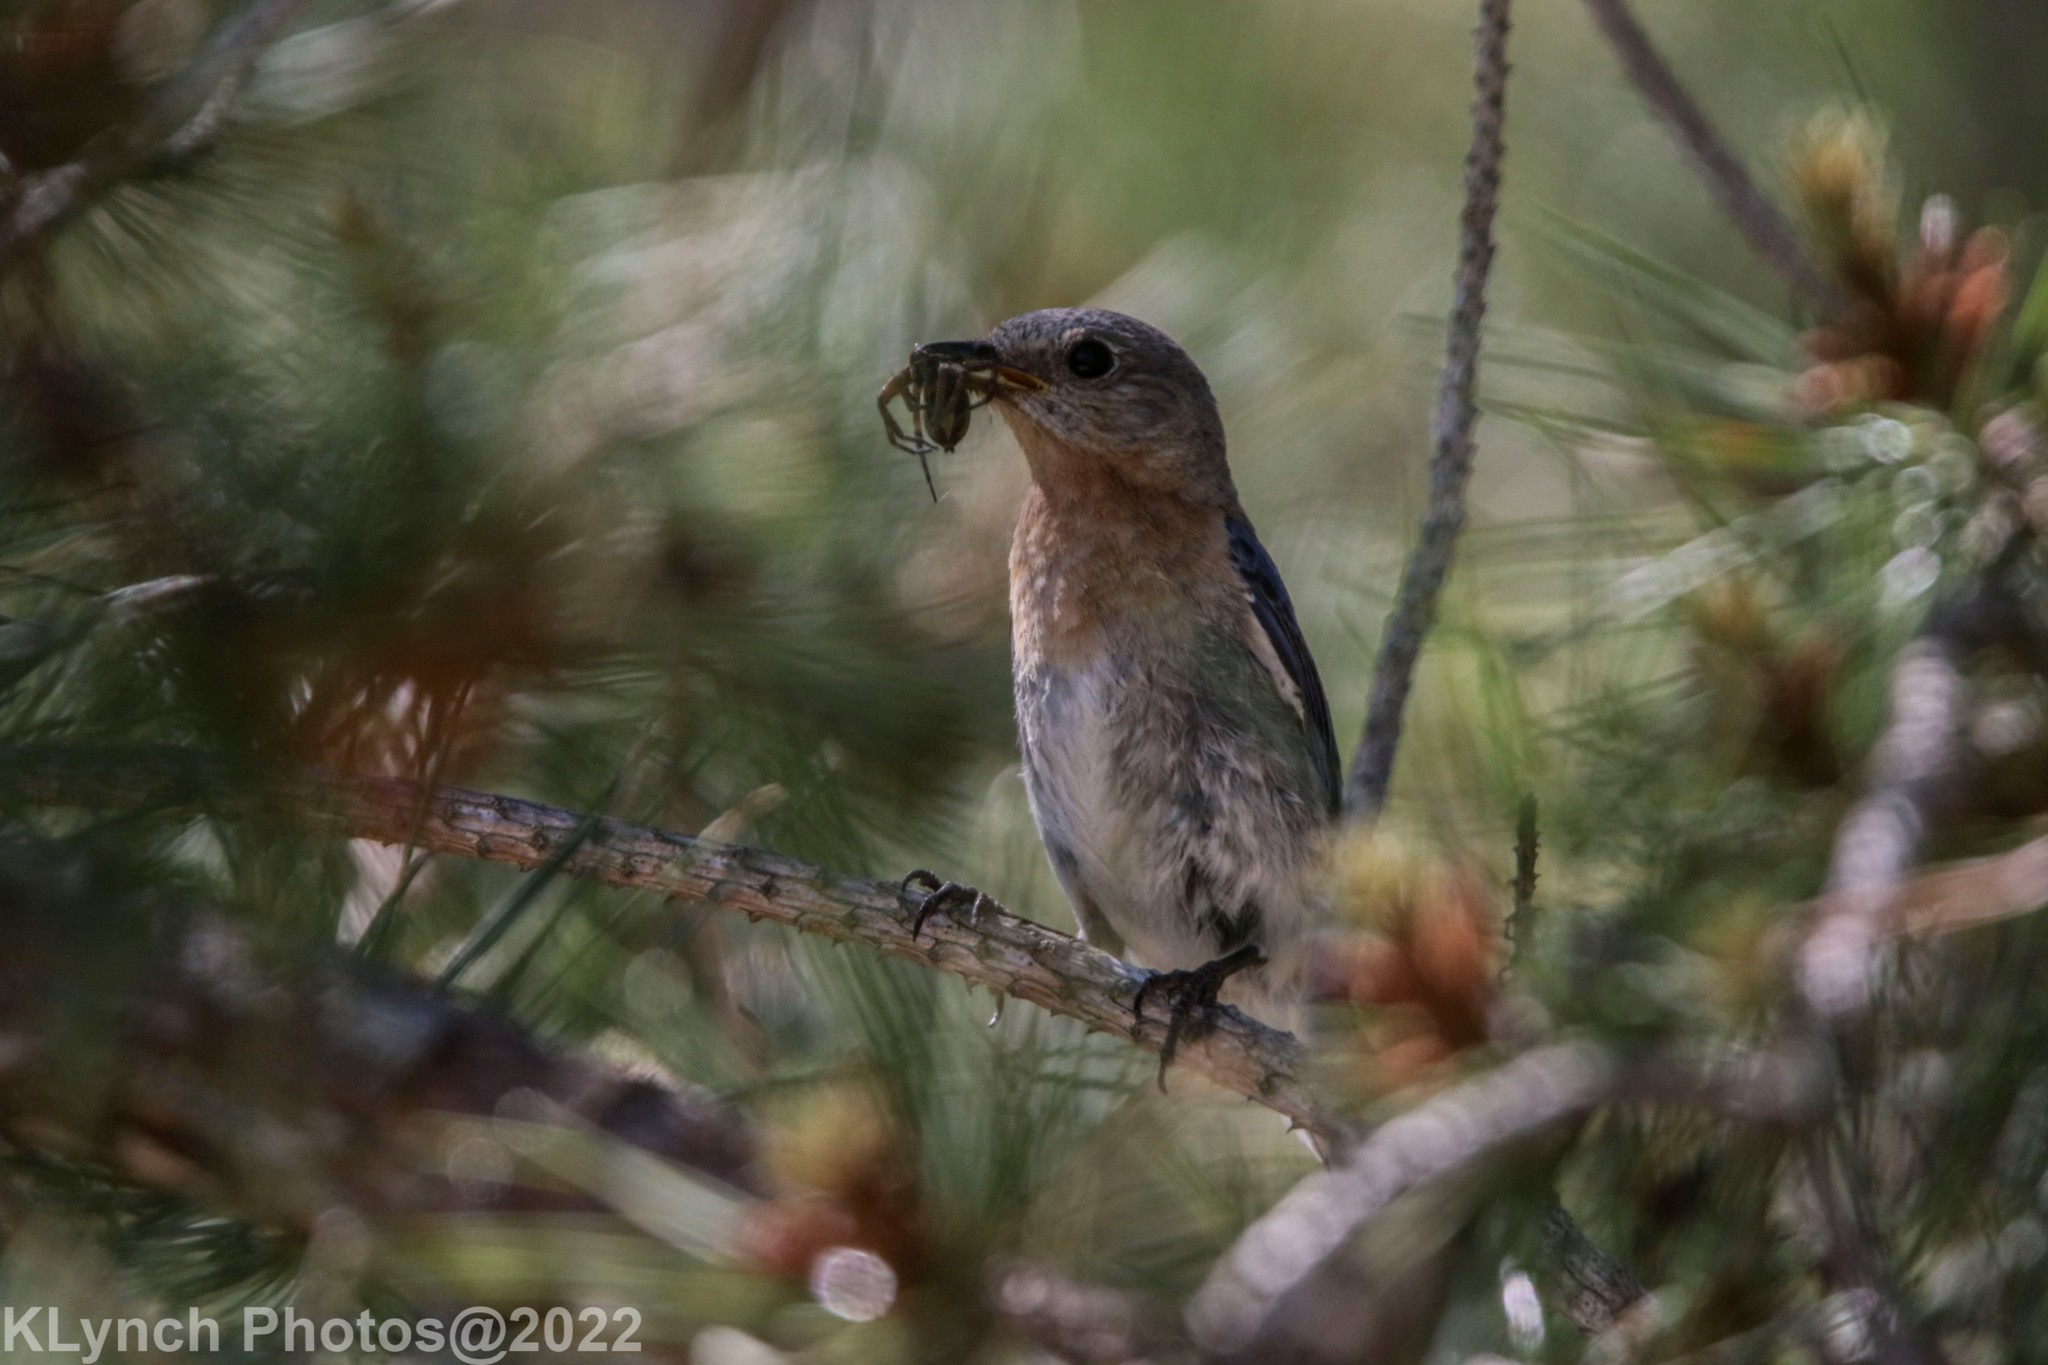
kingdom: Animalia
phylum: Chordata
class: Aves
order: Passeriformes
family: Turdidae
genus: Sialia
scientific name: Sialia sialis
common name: Eastern bluebird
